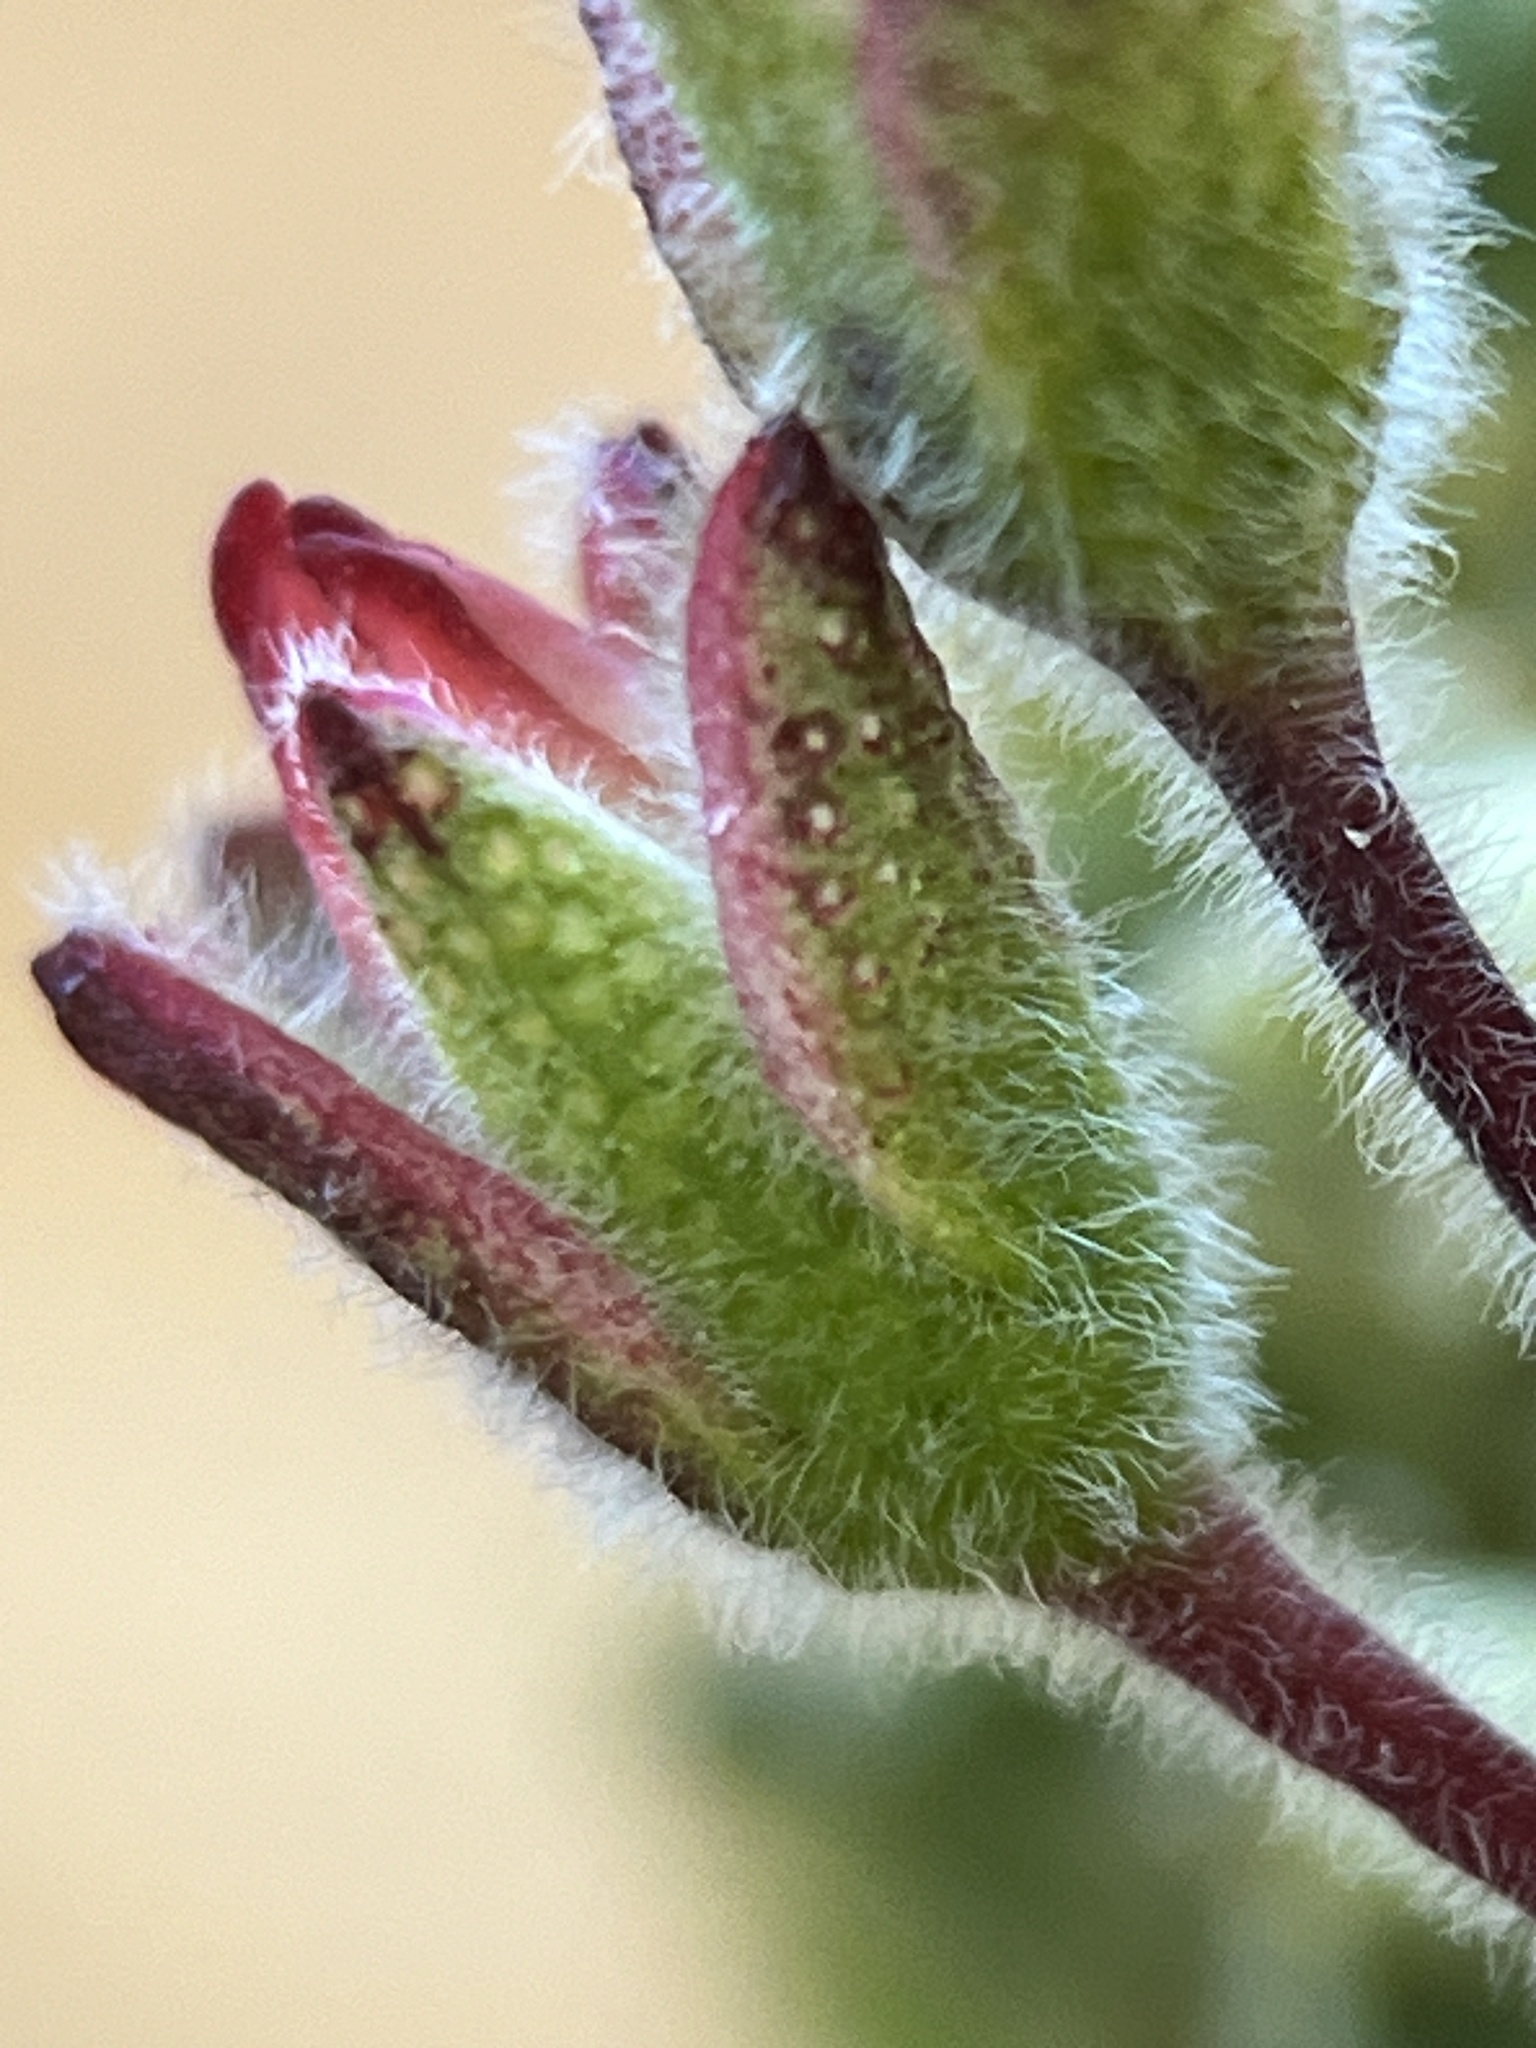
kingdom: Plantae
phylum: Tracheophyta
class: Magnoliopsida
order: Sapindales
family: Rutaceae
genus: Adenandra
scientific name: Adenandra villosa
